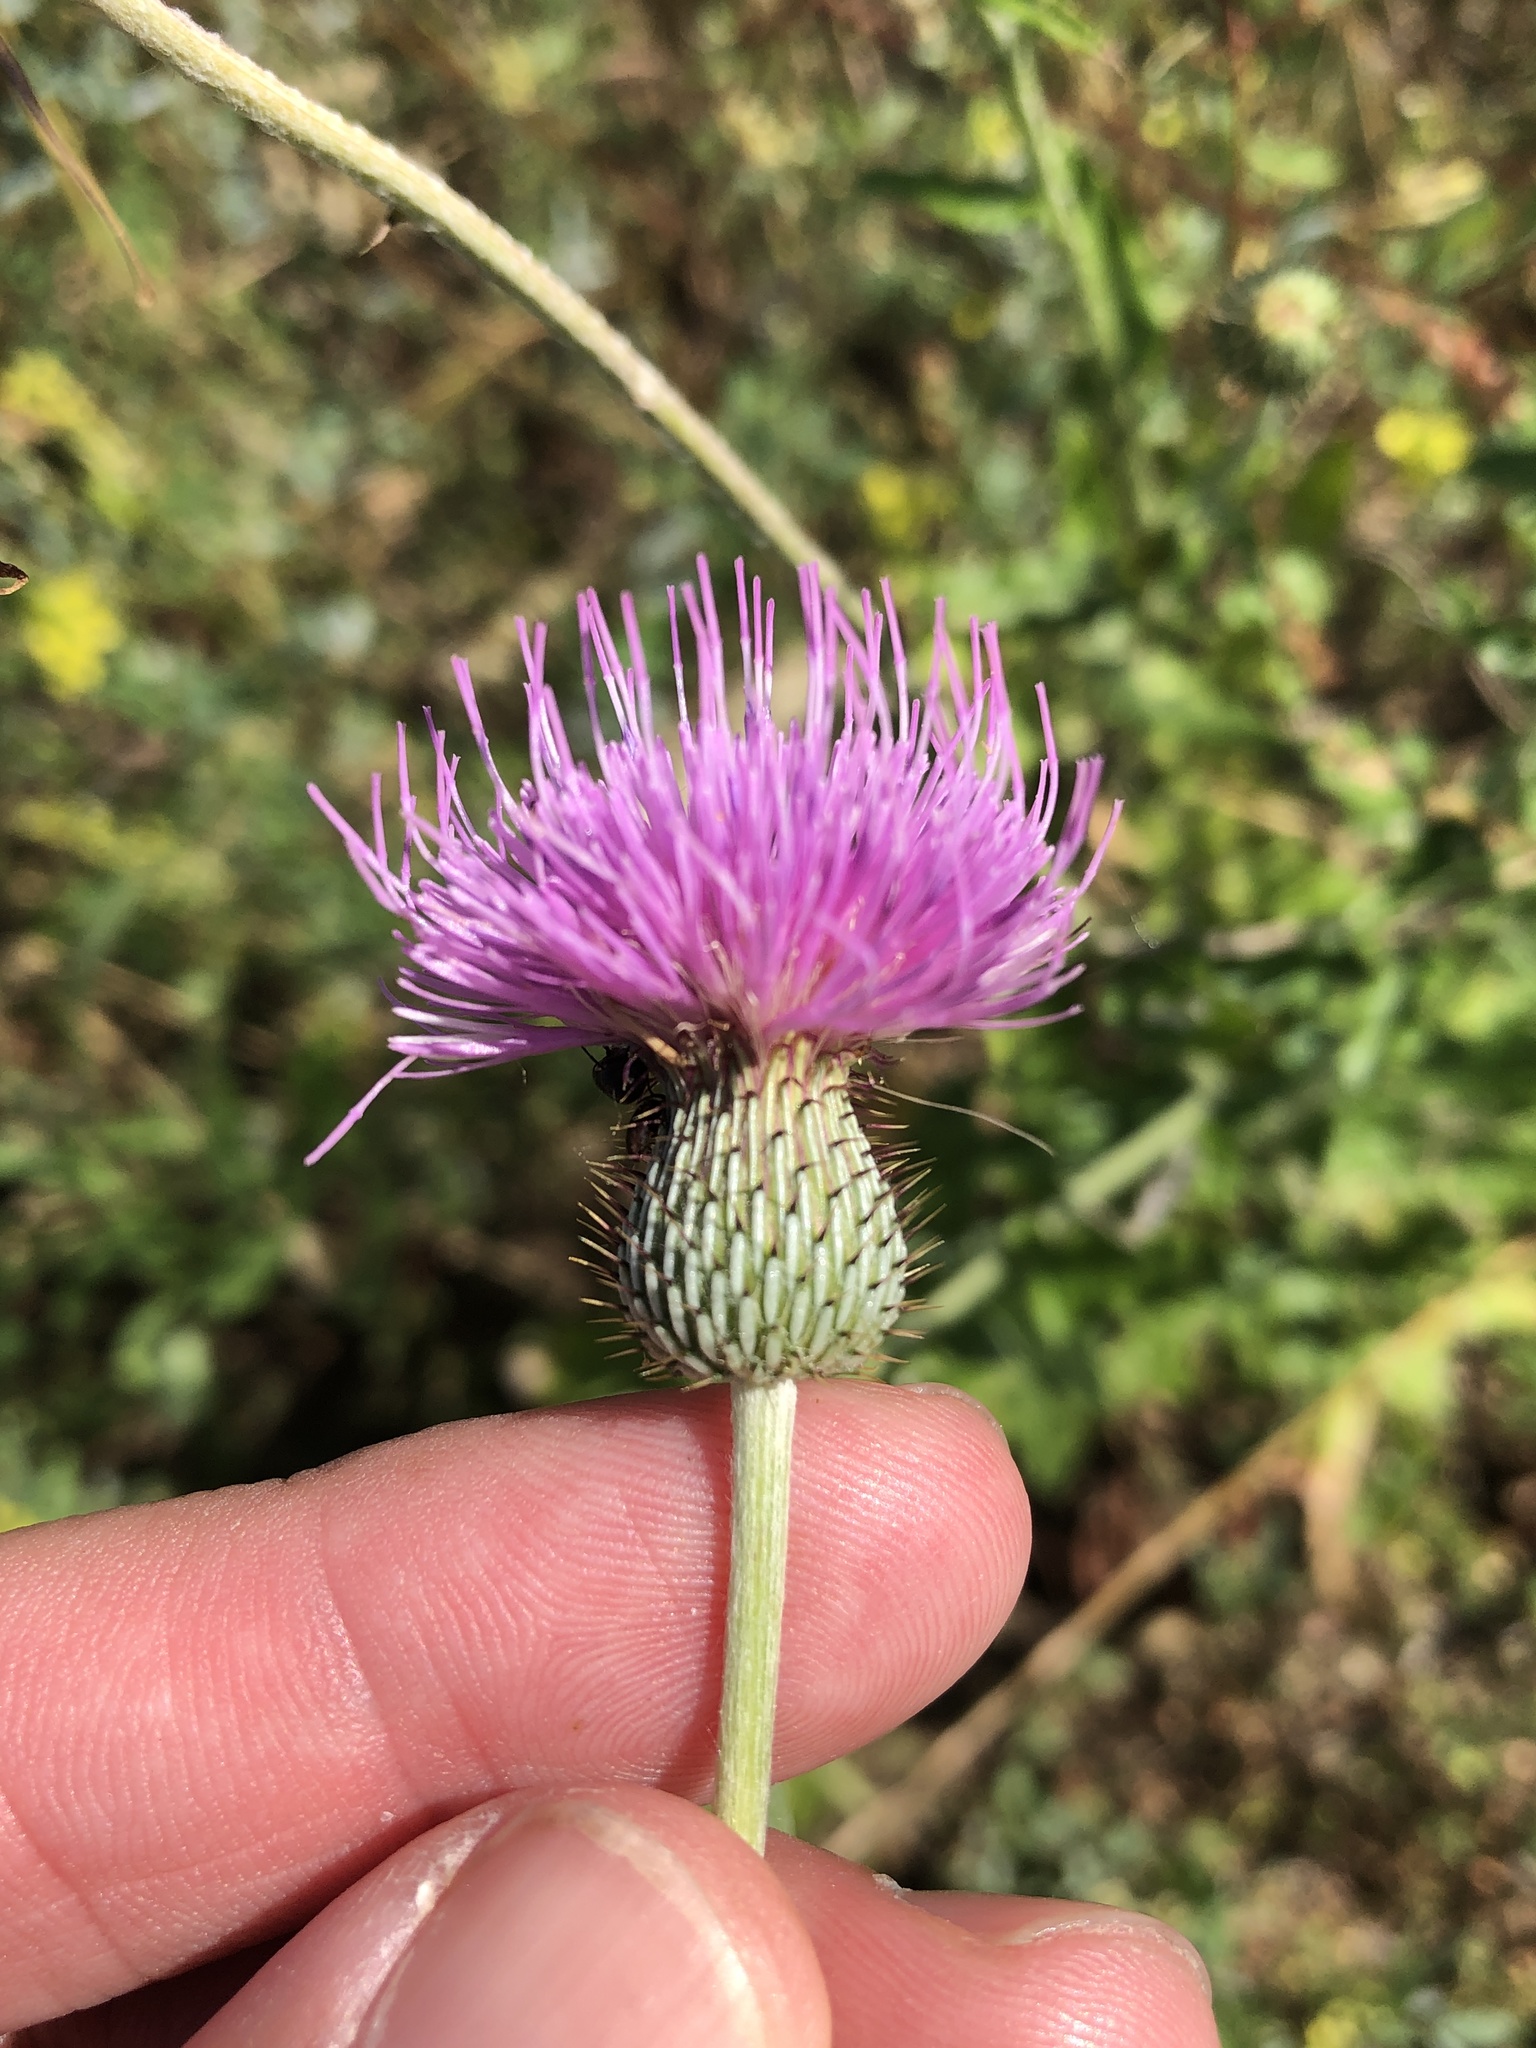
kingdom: Plantae
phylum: Tracheophyta
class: Magnoliopsida
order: Asterales
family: Asteraceae
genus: Cirsium
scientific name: Cirsium texanum
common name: Texas purple thistle
